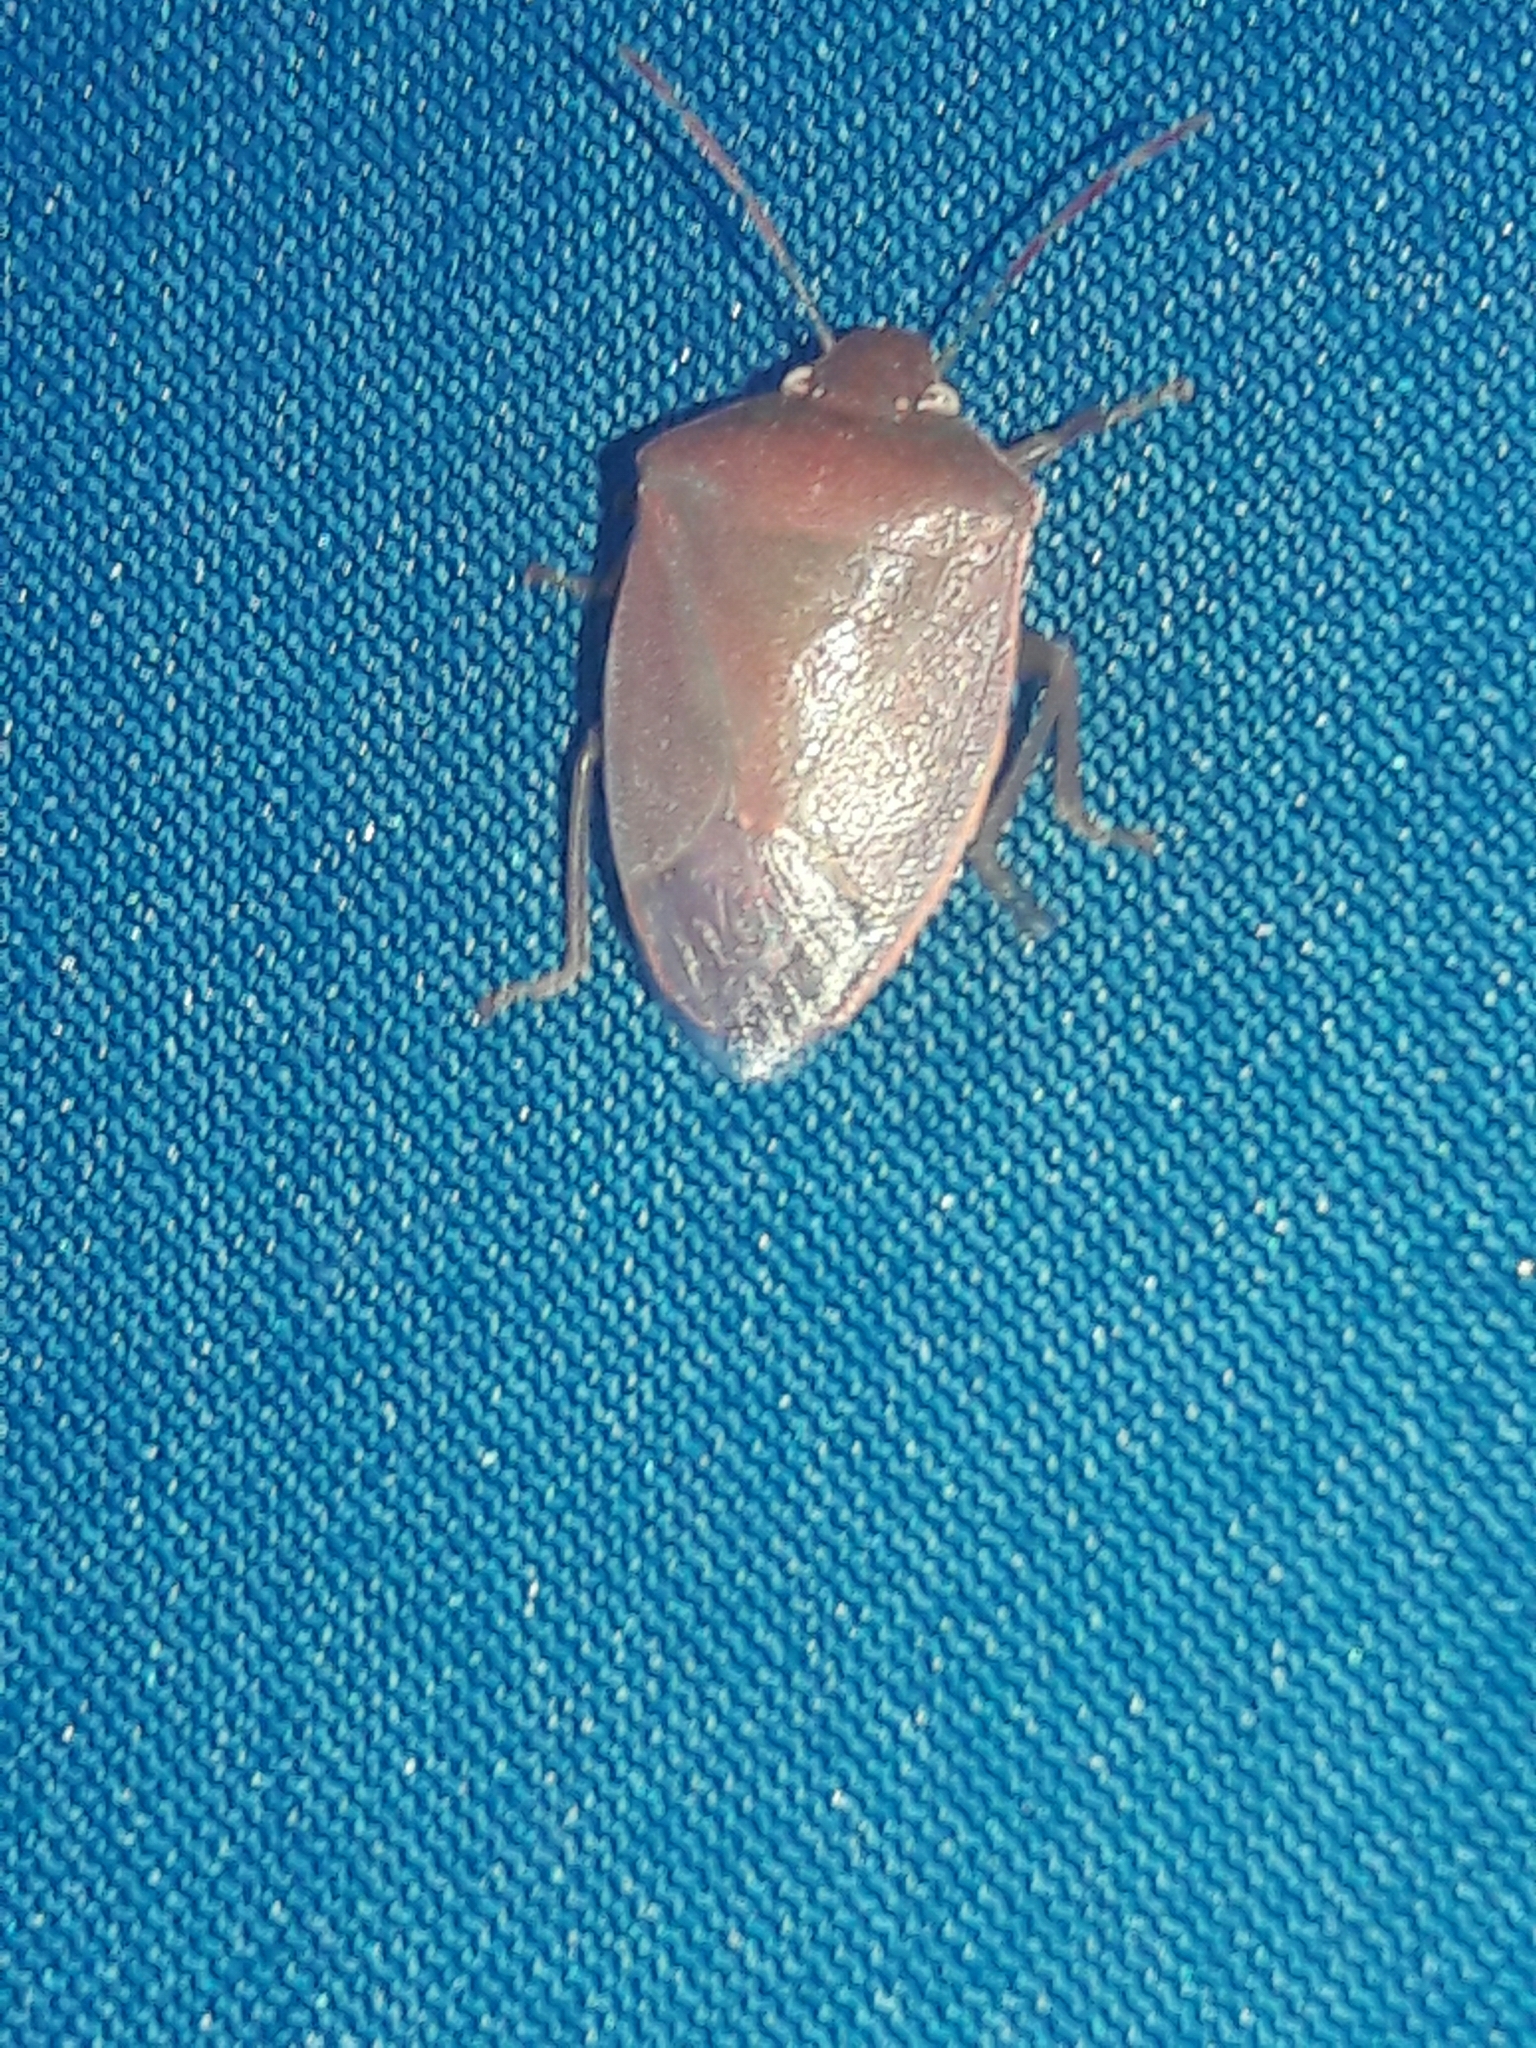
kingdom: Animalia
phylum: Arthropoda
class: Insecta
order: Hemiptera
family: Pentatomidae
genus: Acrosternum
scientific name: Acrosternum heegeri
